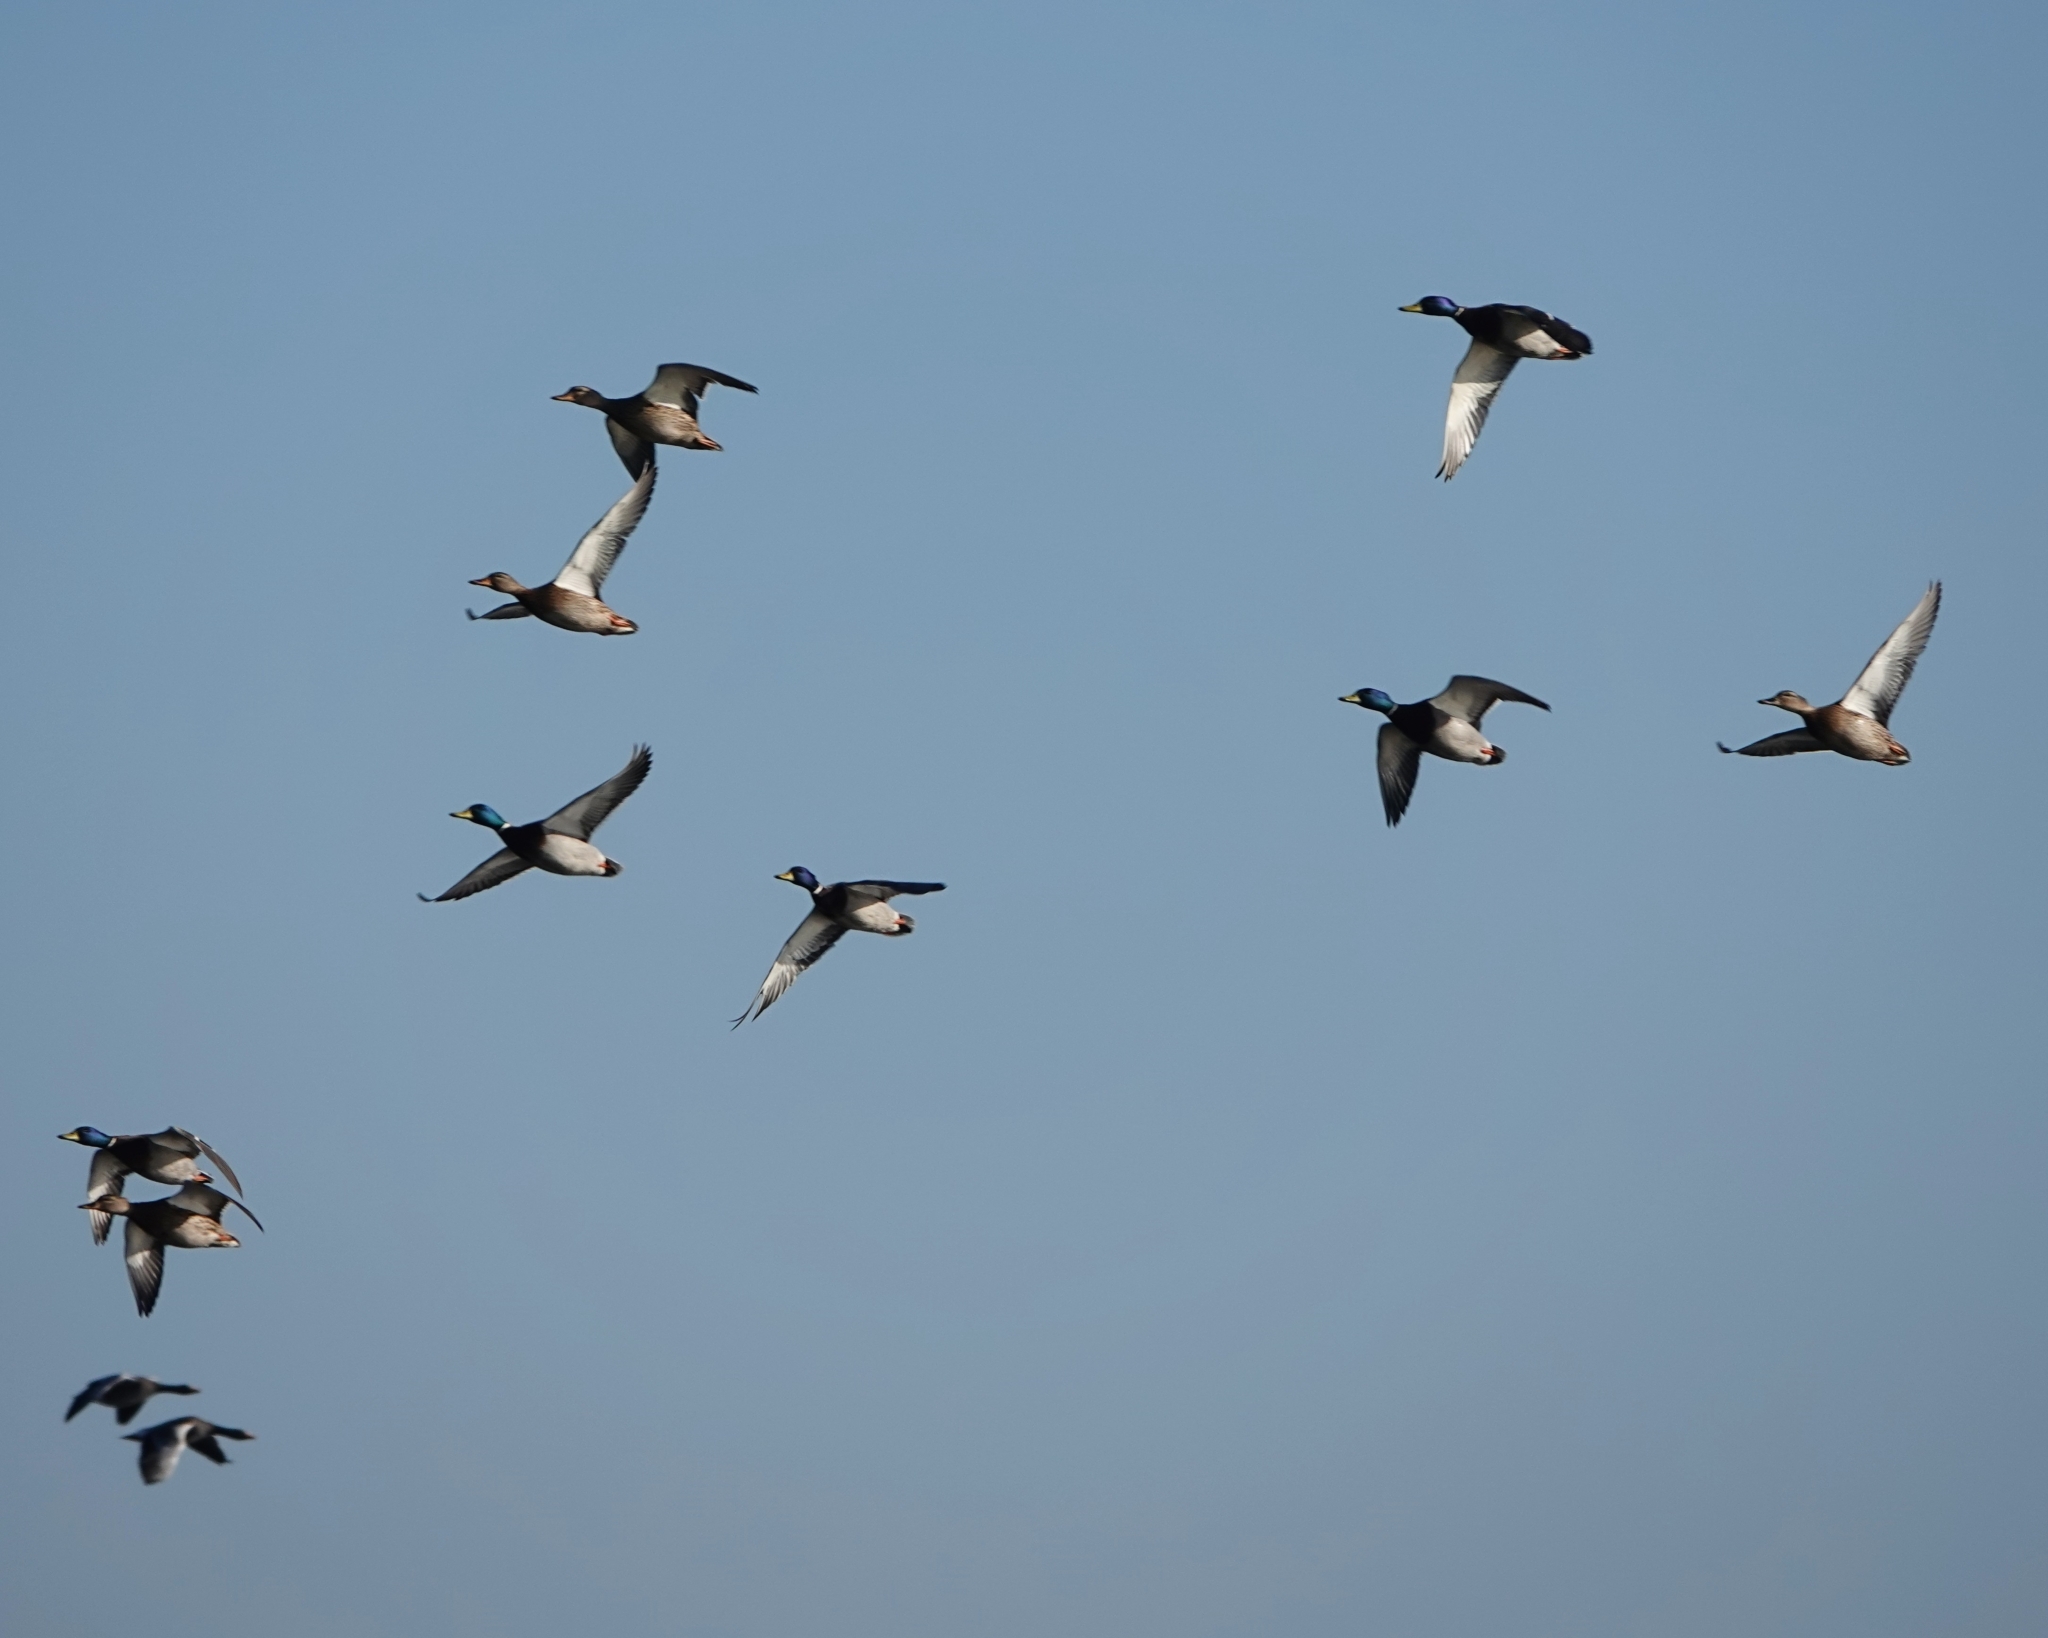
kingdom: Animalia
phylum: Chordata
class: Aves
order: Anseriformes
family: Anatidae
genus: Anas
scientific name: Anas platyrhynchos
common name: Mallard
